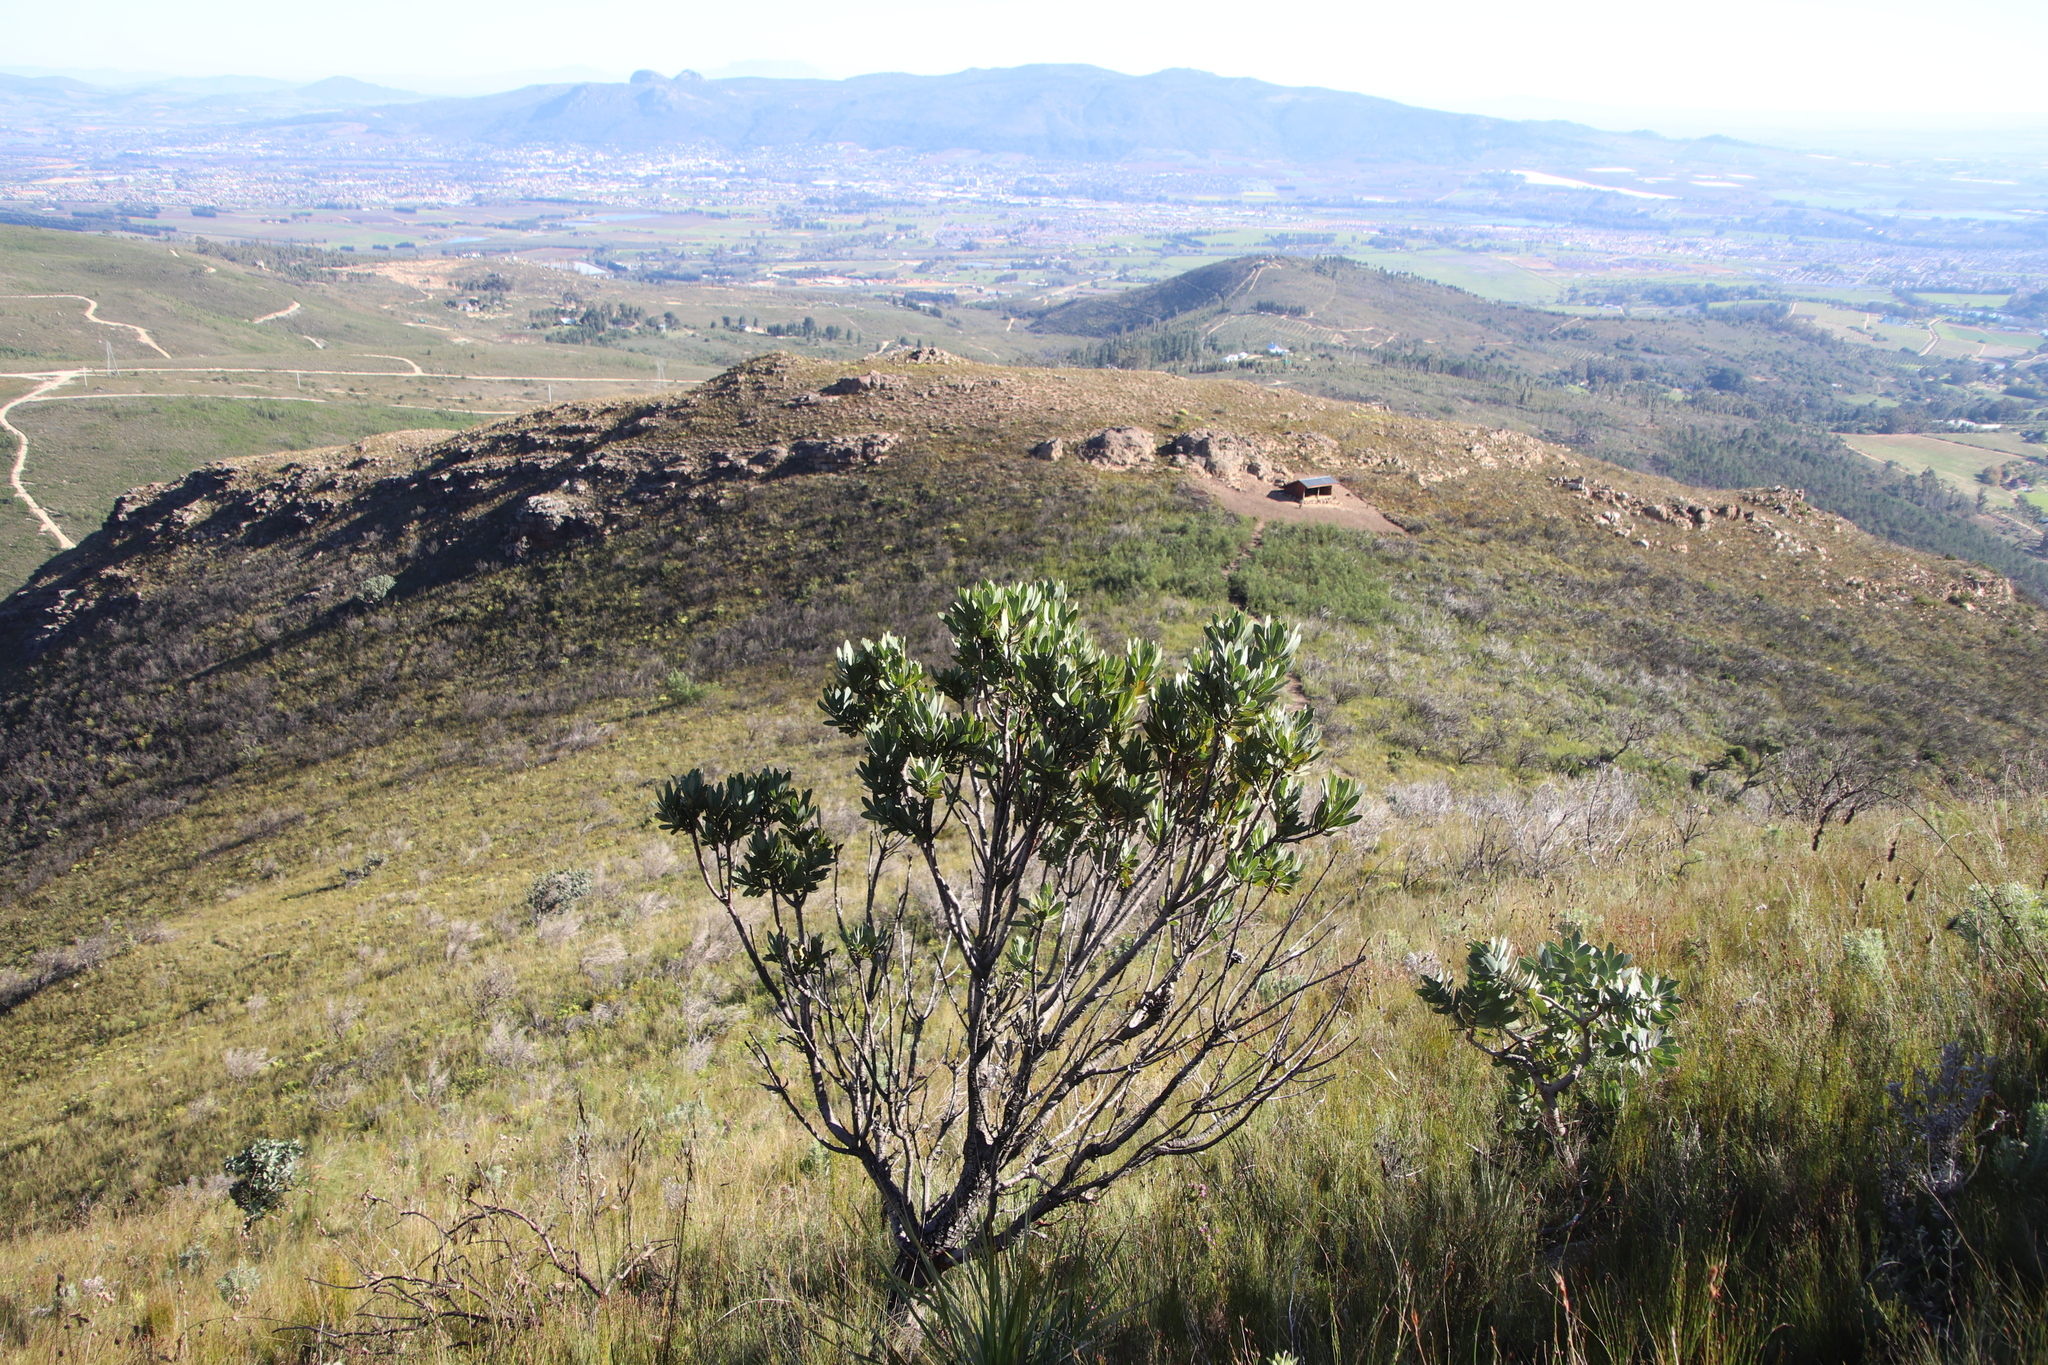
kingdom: Plantae
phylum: Tracheophyta
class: Magnoliopsida
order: Proteales
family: Proteaceae
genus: Protea
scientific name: Protea laurifolia
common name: Grey-leaf sugarbsh
